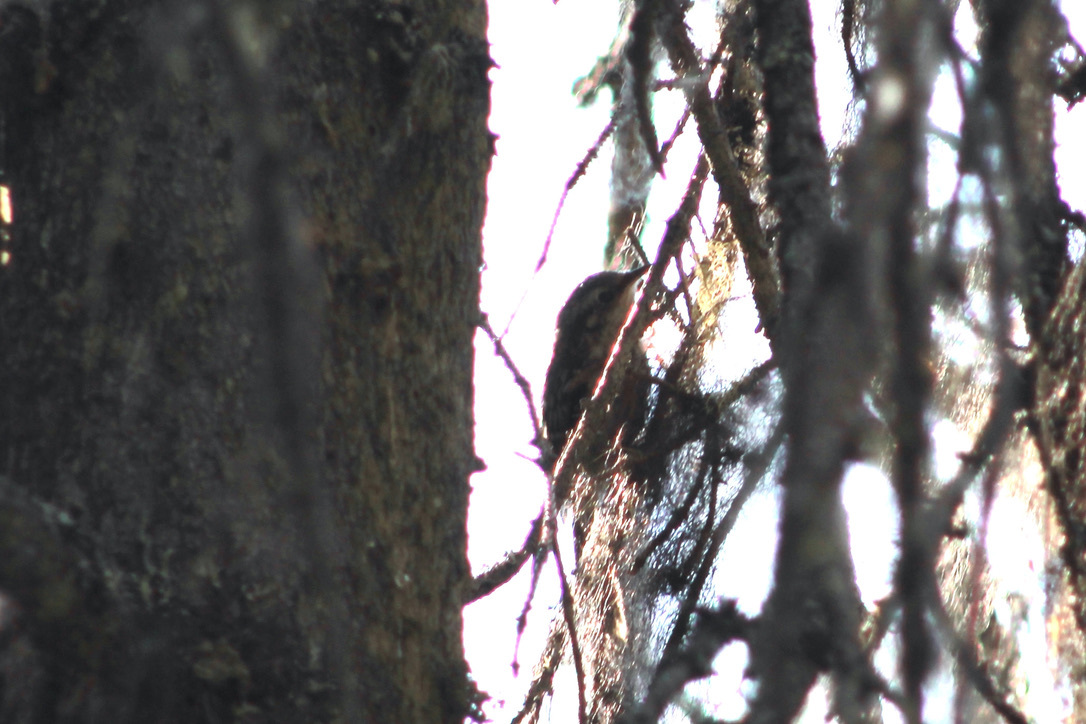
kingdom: Animalia
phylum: Chordata
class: Aves
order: Passeriformes
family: Certhiidae
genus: Certhia
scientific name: Certhia americana
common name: Brown creeper
